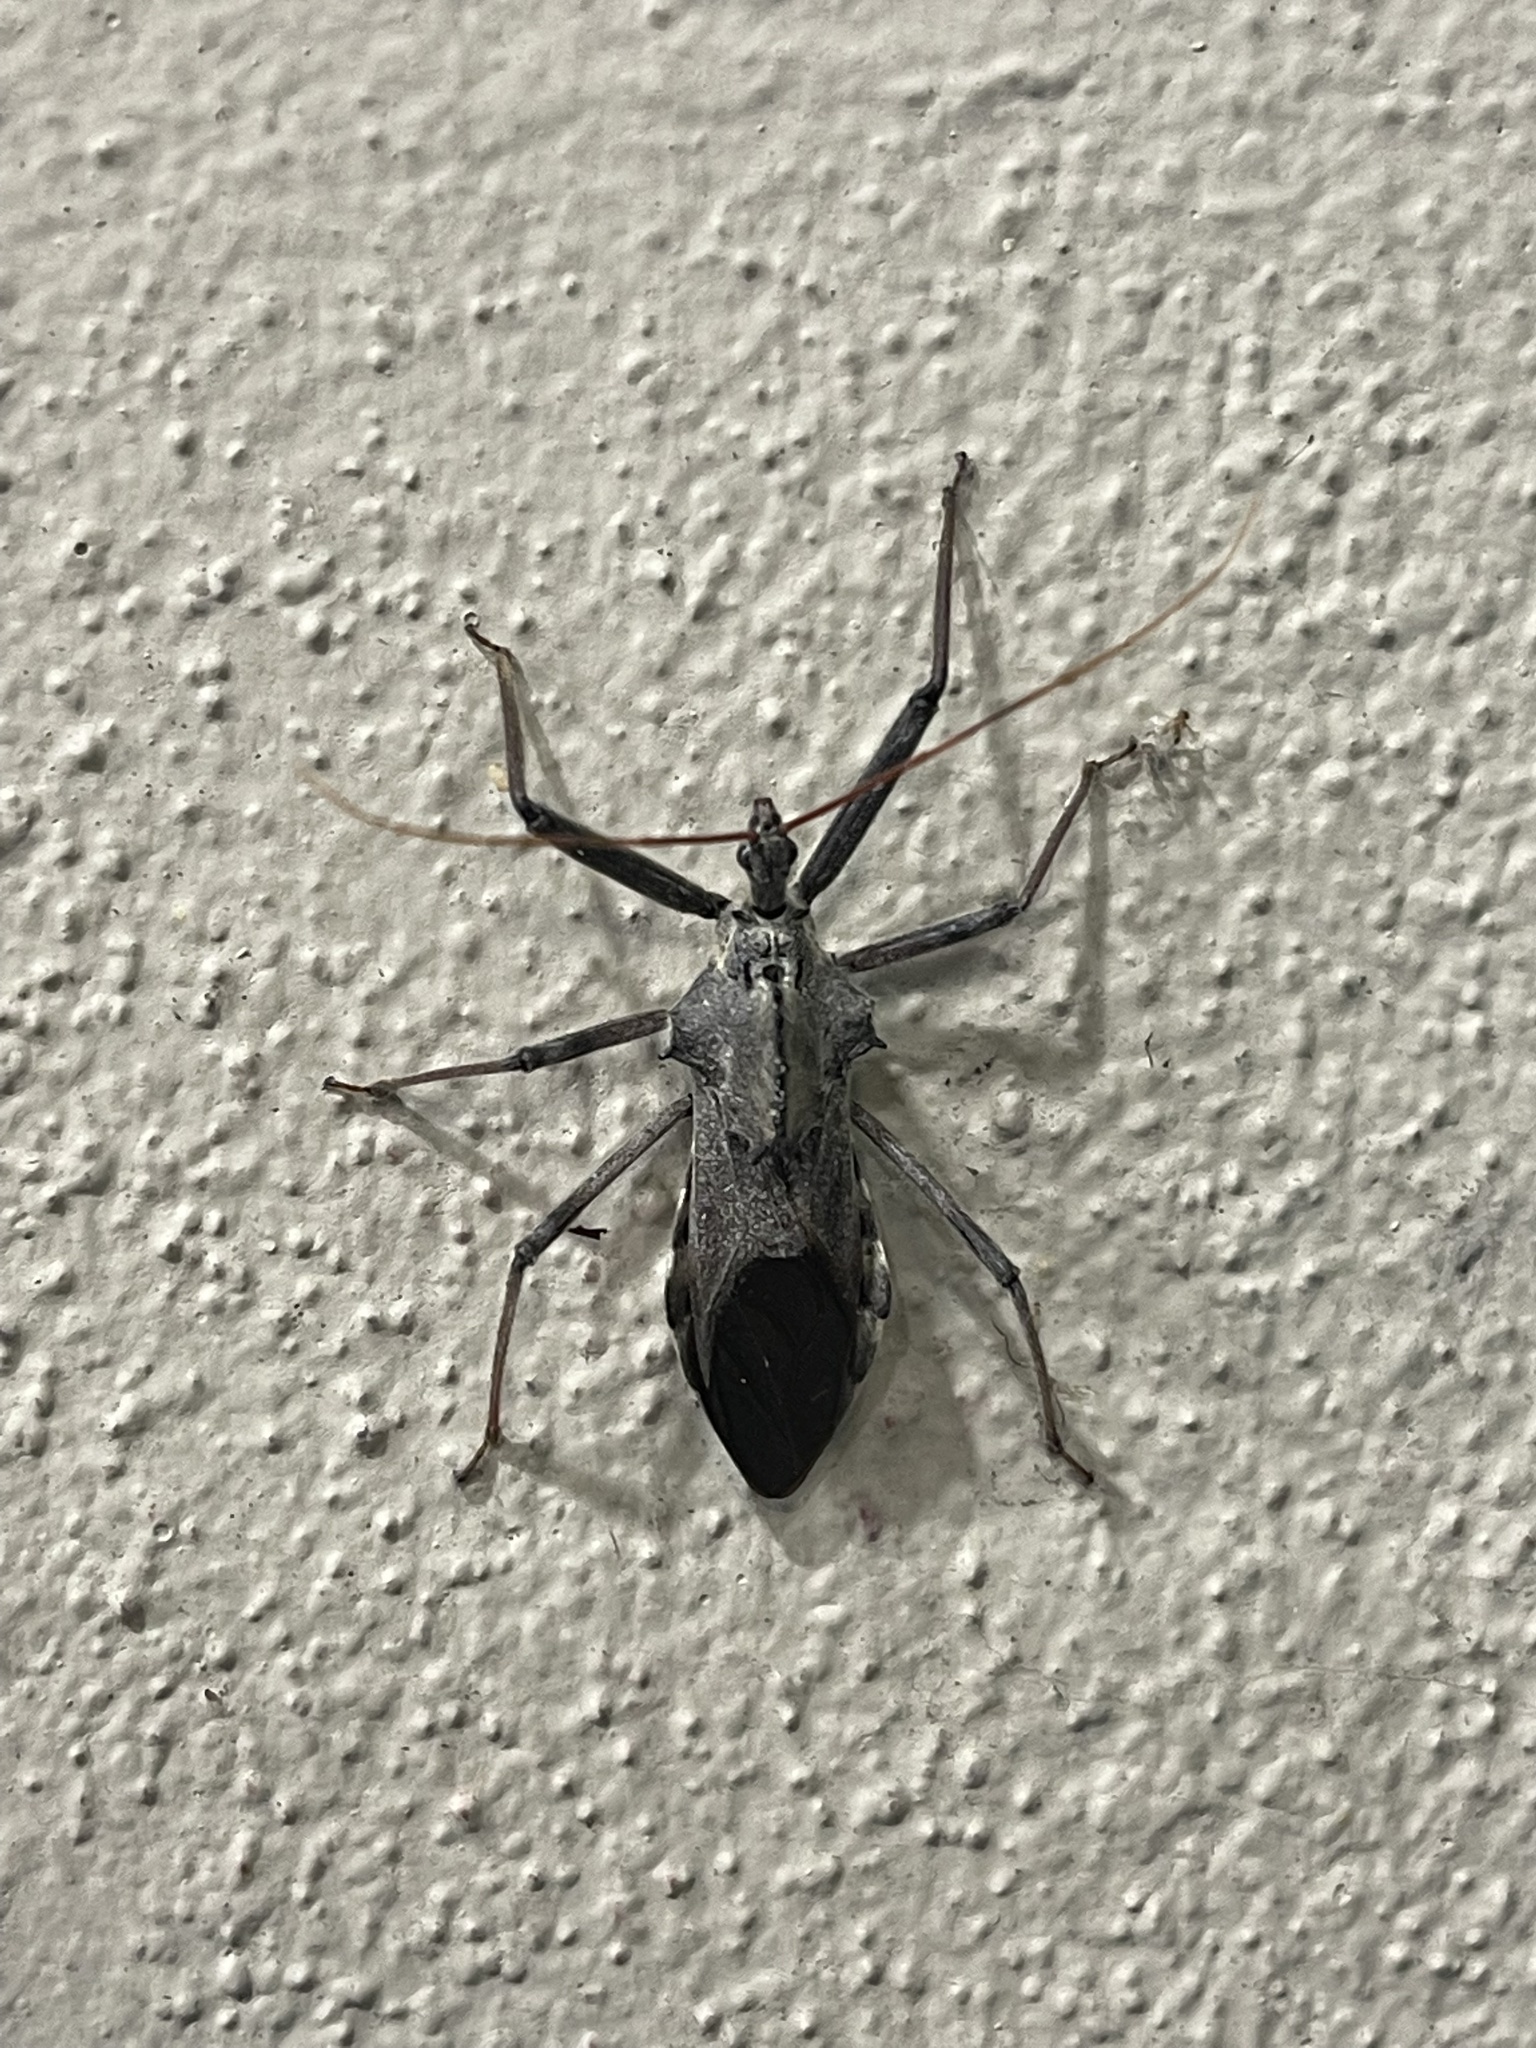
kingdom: Animalia
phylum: Arthropoda
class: Insecta
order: Hemiptera
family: Reduviidae
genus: Arilus
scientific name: Arilus cristatus
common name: North american wheel bug
